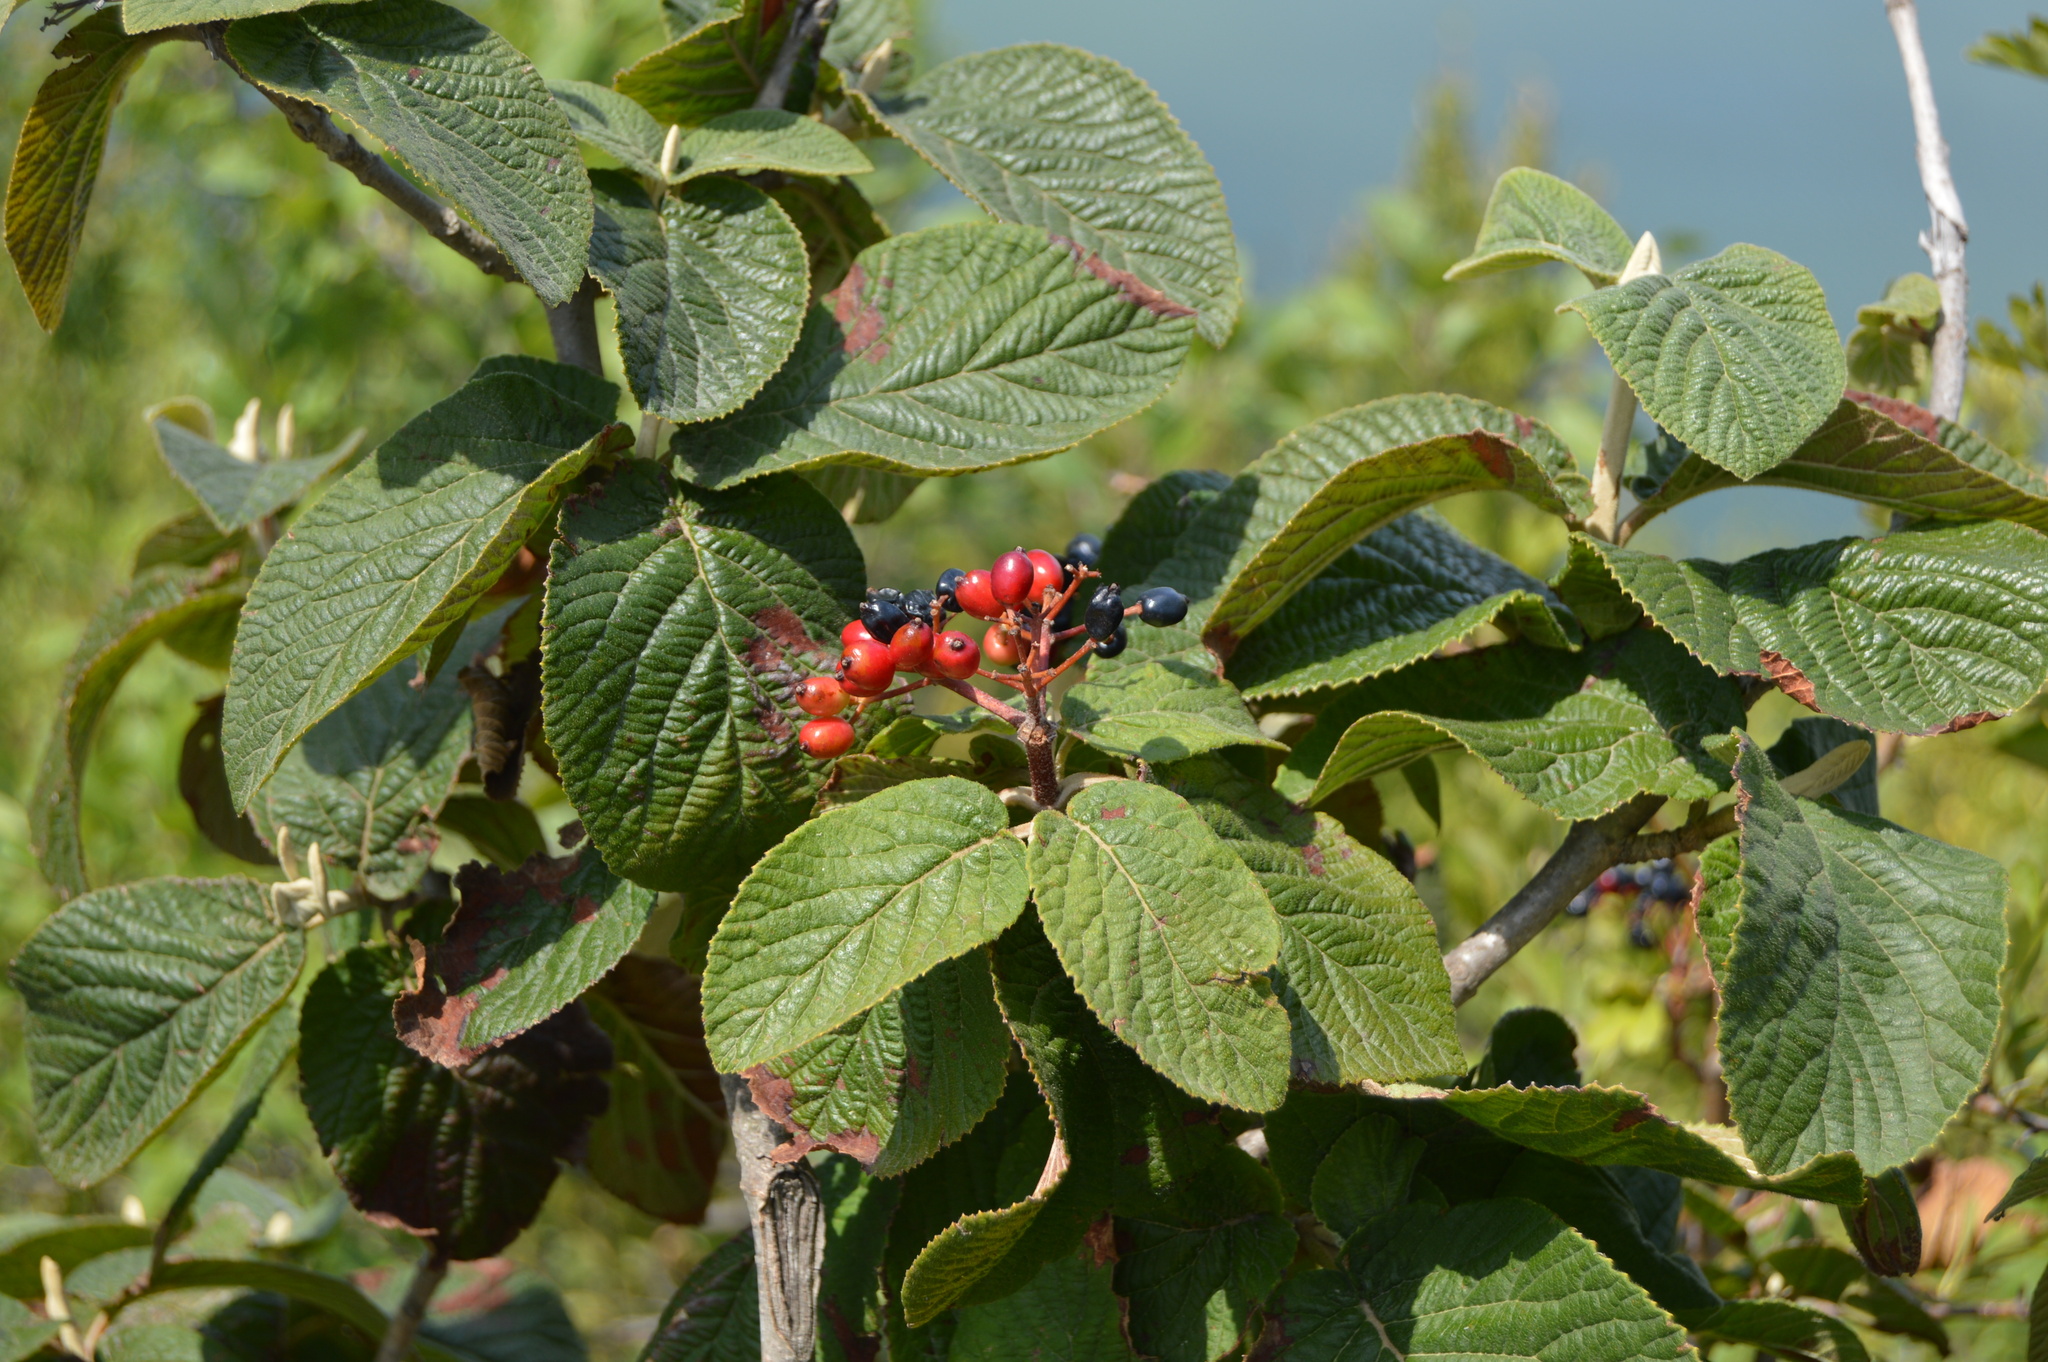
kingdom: Plantae
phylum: Tracheophyta
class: Magnoliopsida
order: Dipsacales
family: Viburnaceae
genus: Viburnum
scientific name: Viburnum lantana
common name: Wayfaring tree
